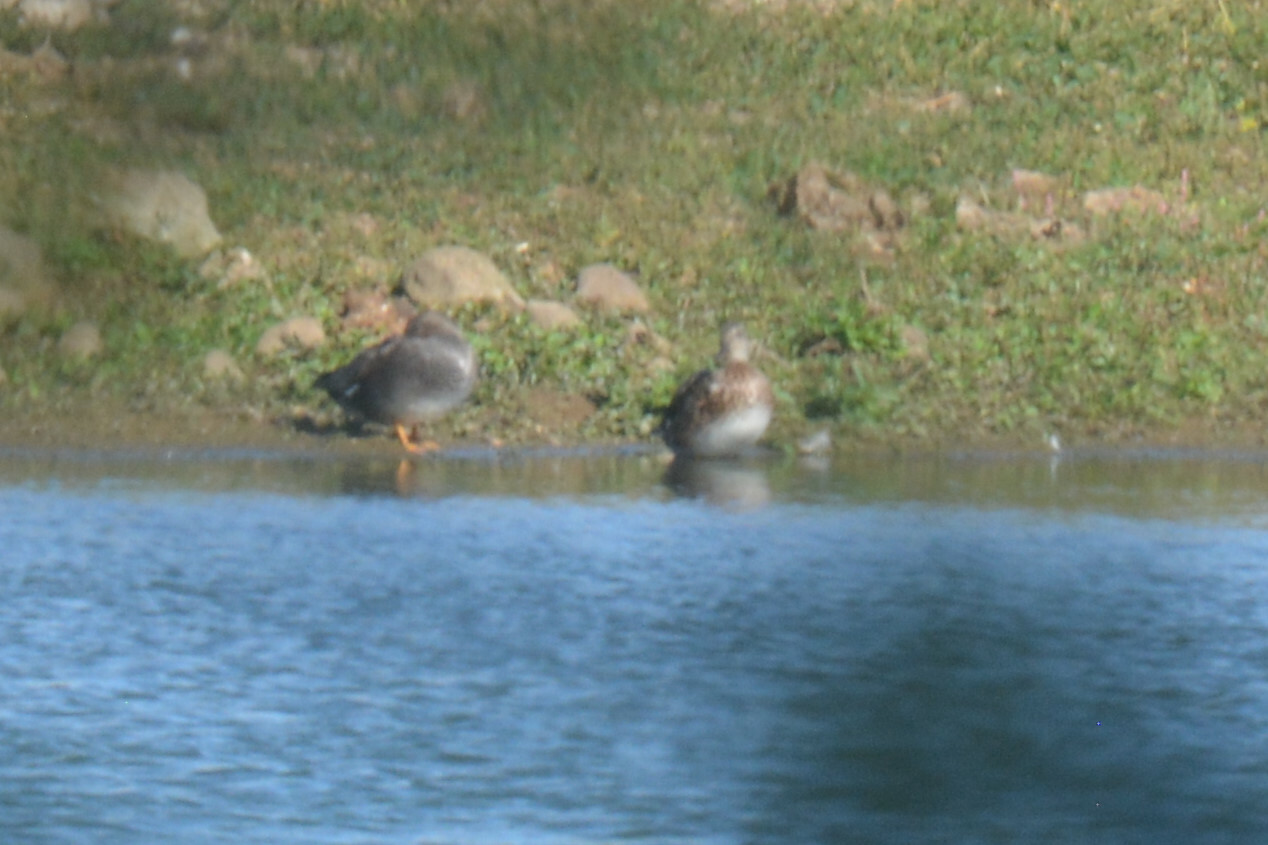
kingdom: Animalia
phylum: Chordata
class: Aves
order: Anseriformes
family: Anatidae
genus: Mareca
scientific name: Mareca strepera
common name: Gadwall
